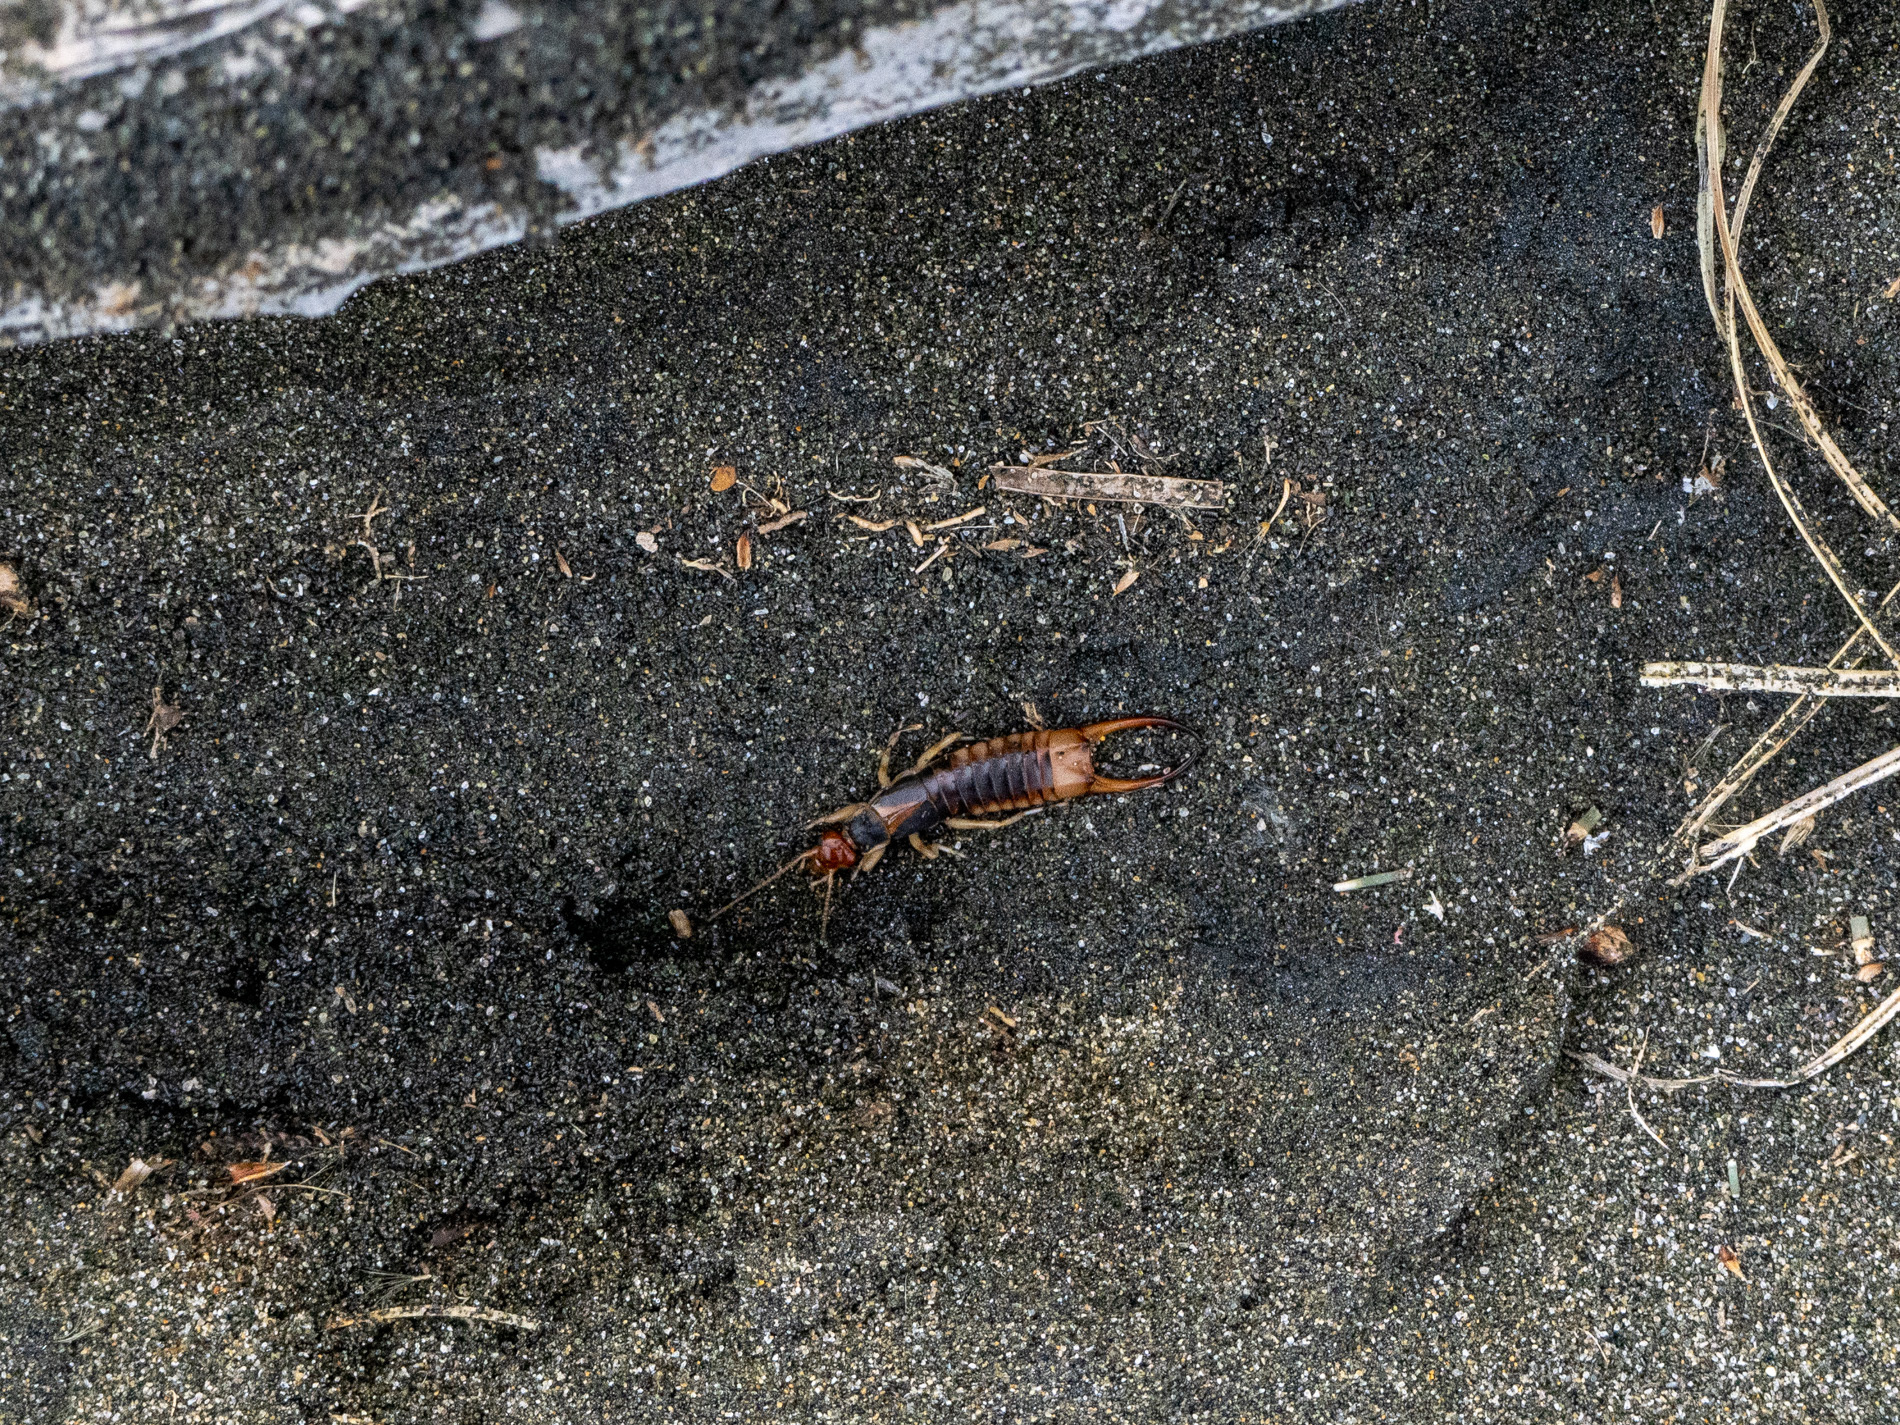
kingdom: Animalia
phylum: Arthropoda
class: Insecta
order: Dermaptera
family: Labiduridae
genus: Labidura
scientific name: Labidura riparia
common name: Striped earwig
